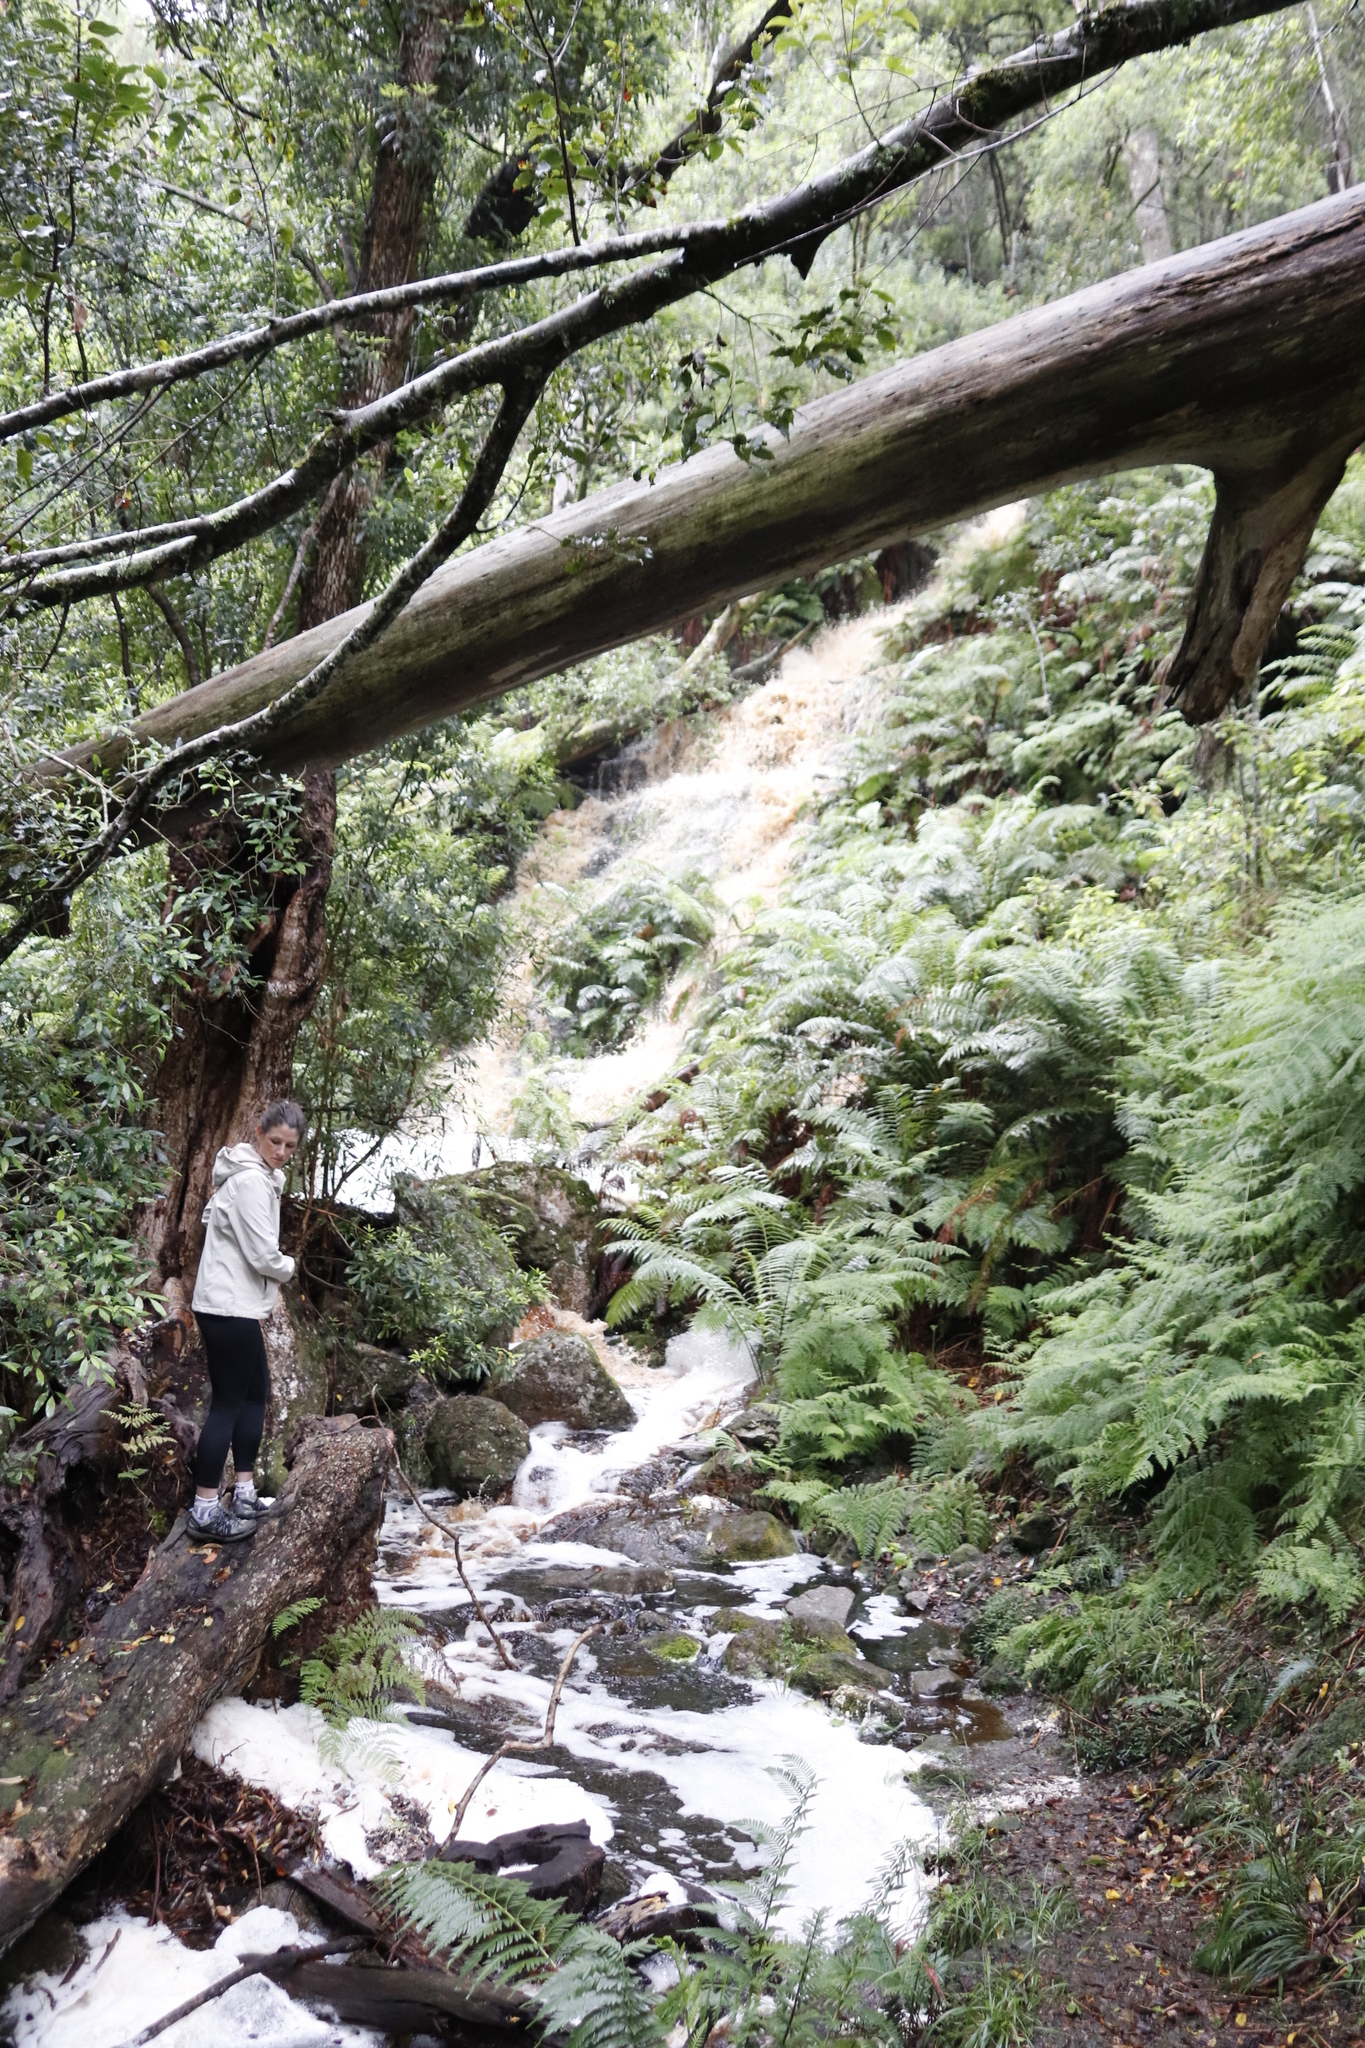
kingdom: Plantae
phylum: Tracheophyta
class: Polypodiopsida
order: Polypodiales
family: Dennstaedtiaceae
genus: Hypolepis
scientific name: Hypolepis sparsisora
